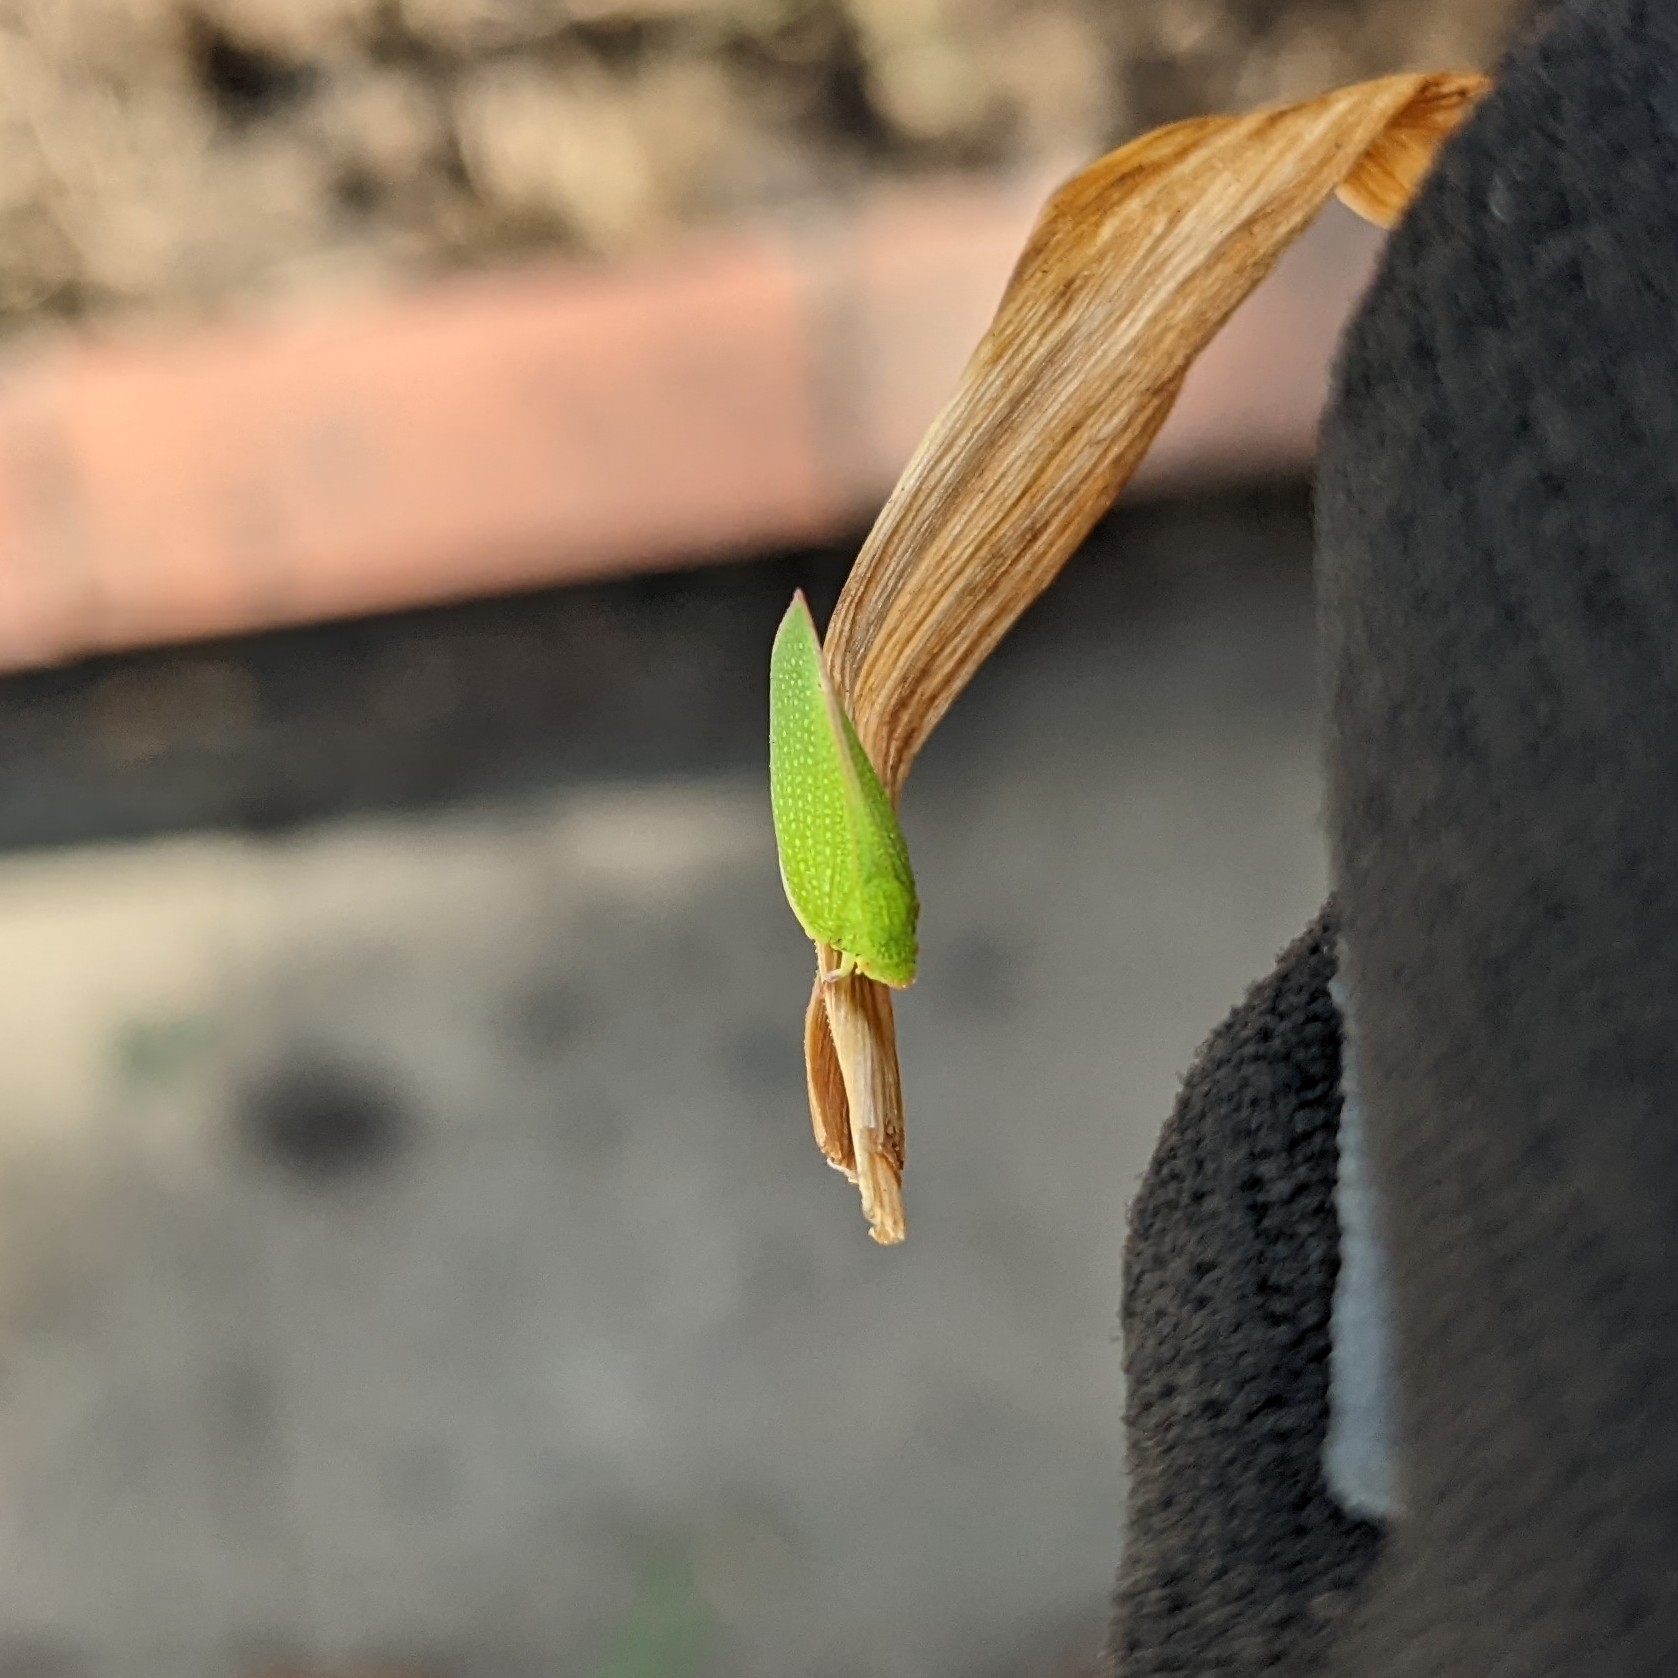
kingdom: Animalia
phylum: Arthropoda
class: Insecta
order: Hemiptera
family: Flatidae
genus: Siphanta
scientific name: Siphanta acuta
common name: Torpedo bug
